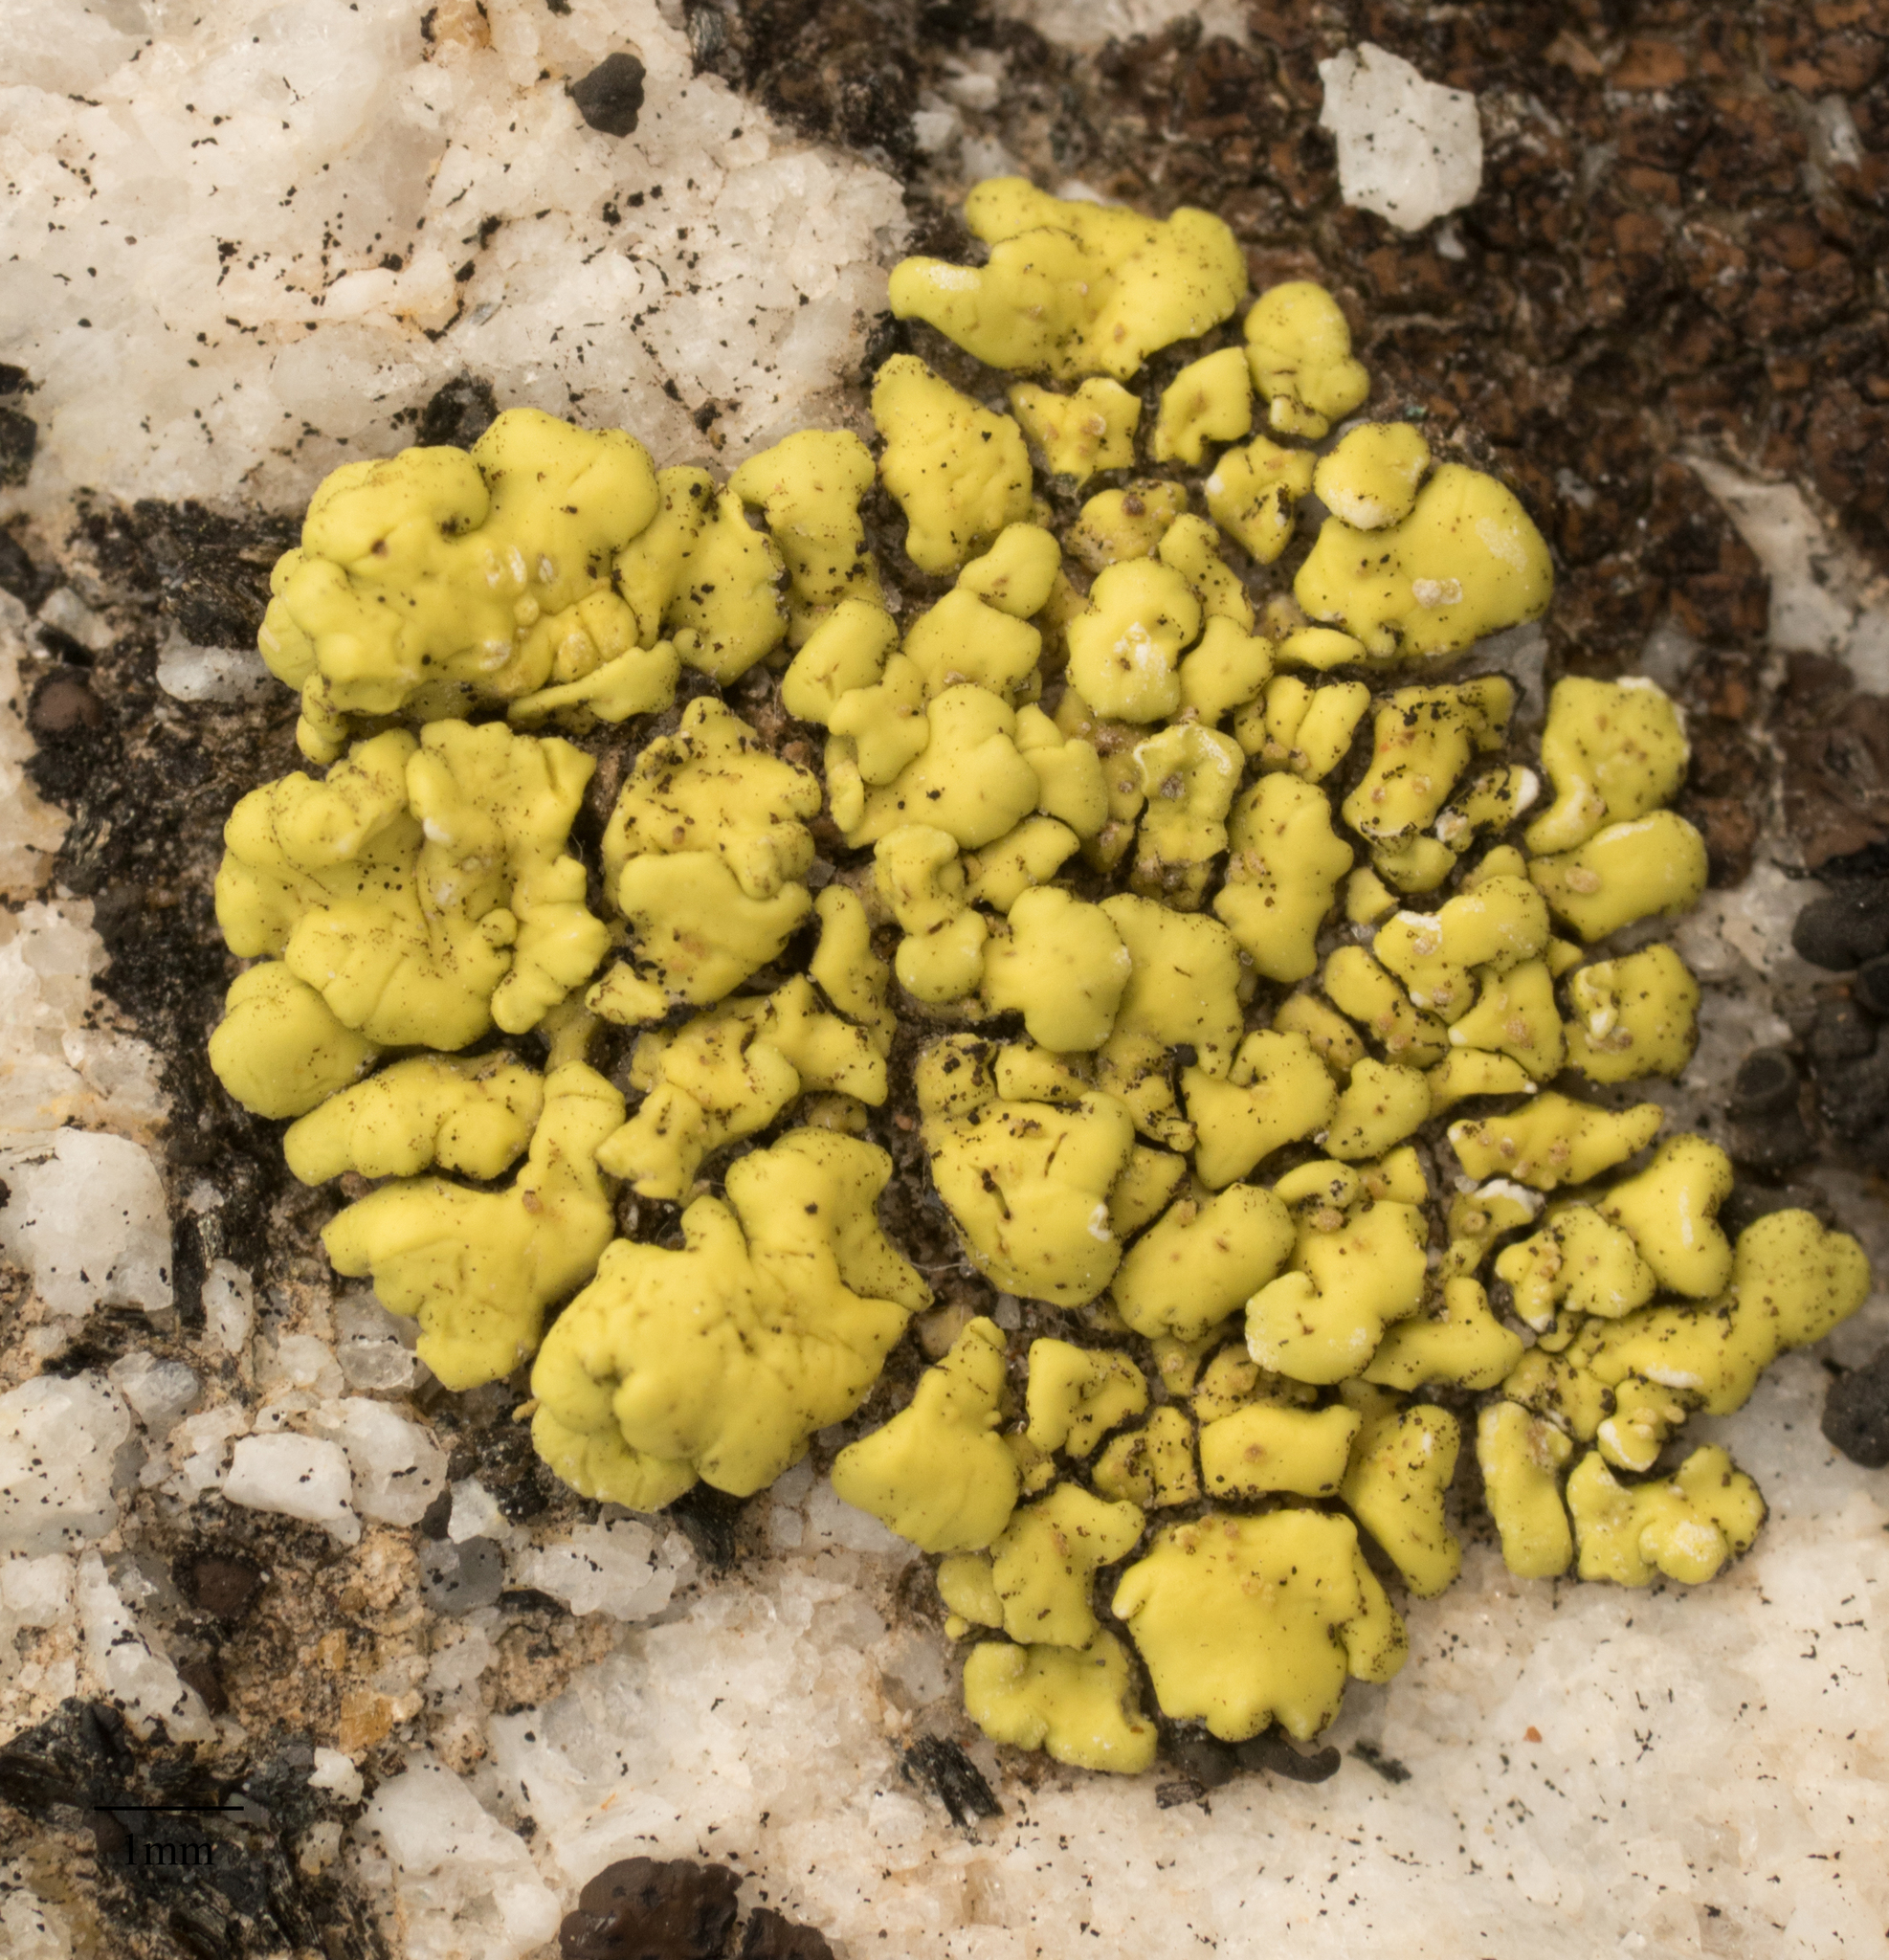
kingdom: Fungi
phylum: Ascomycota
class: Lecanoromycetes
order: Acarosporales
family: Acarosporaceae
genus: Acarospora
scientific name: Acarospora socialis
